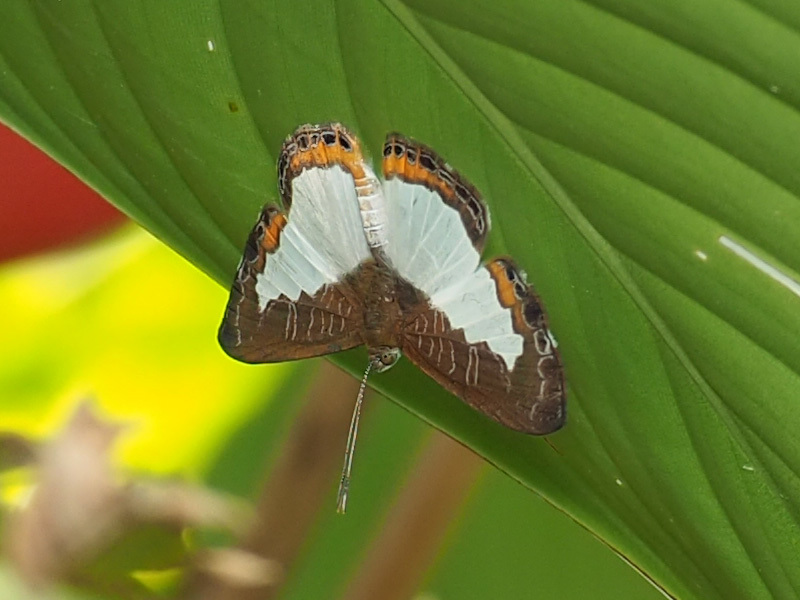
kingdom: Animalia
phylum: Arthropoda
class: Insecta
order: Lepidoptera
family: Riodinidae
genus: Juditha
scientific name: Juditha caucana
